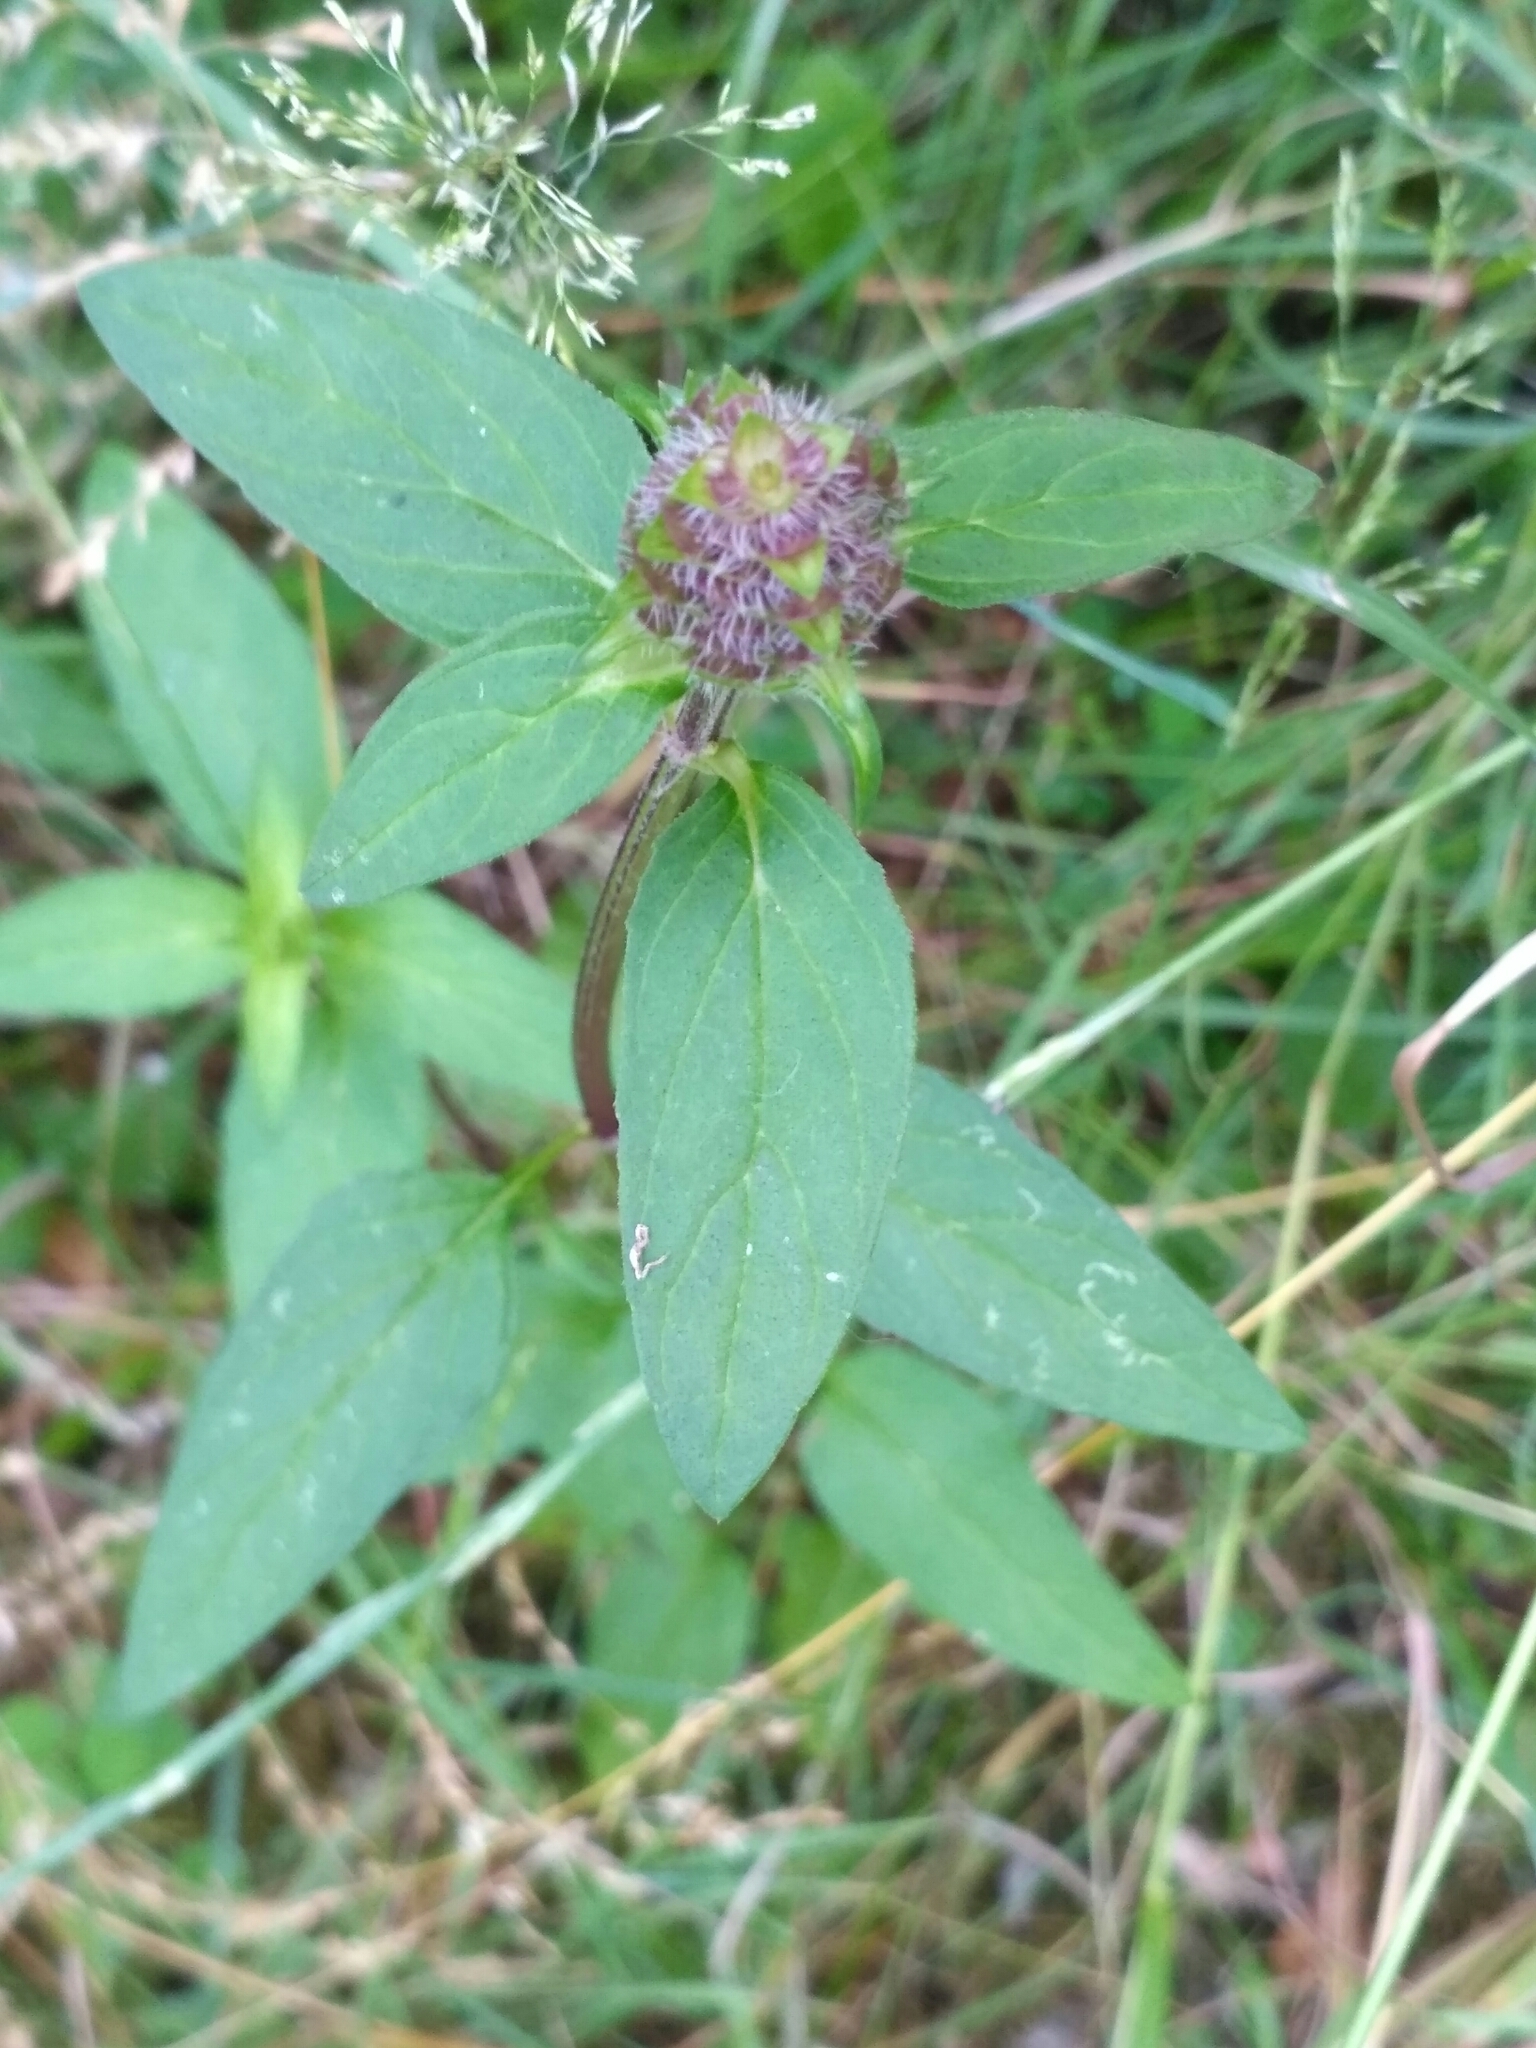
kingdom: Plantae
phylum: Tracheophyta
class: Magnoliopsida
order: Lamiales
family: Lamiaceae
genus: Prunella
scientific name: Prunella vulgaris
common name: Heal-all
